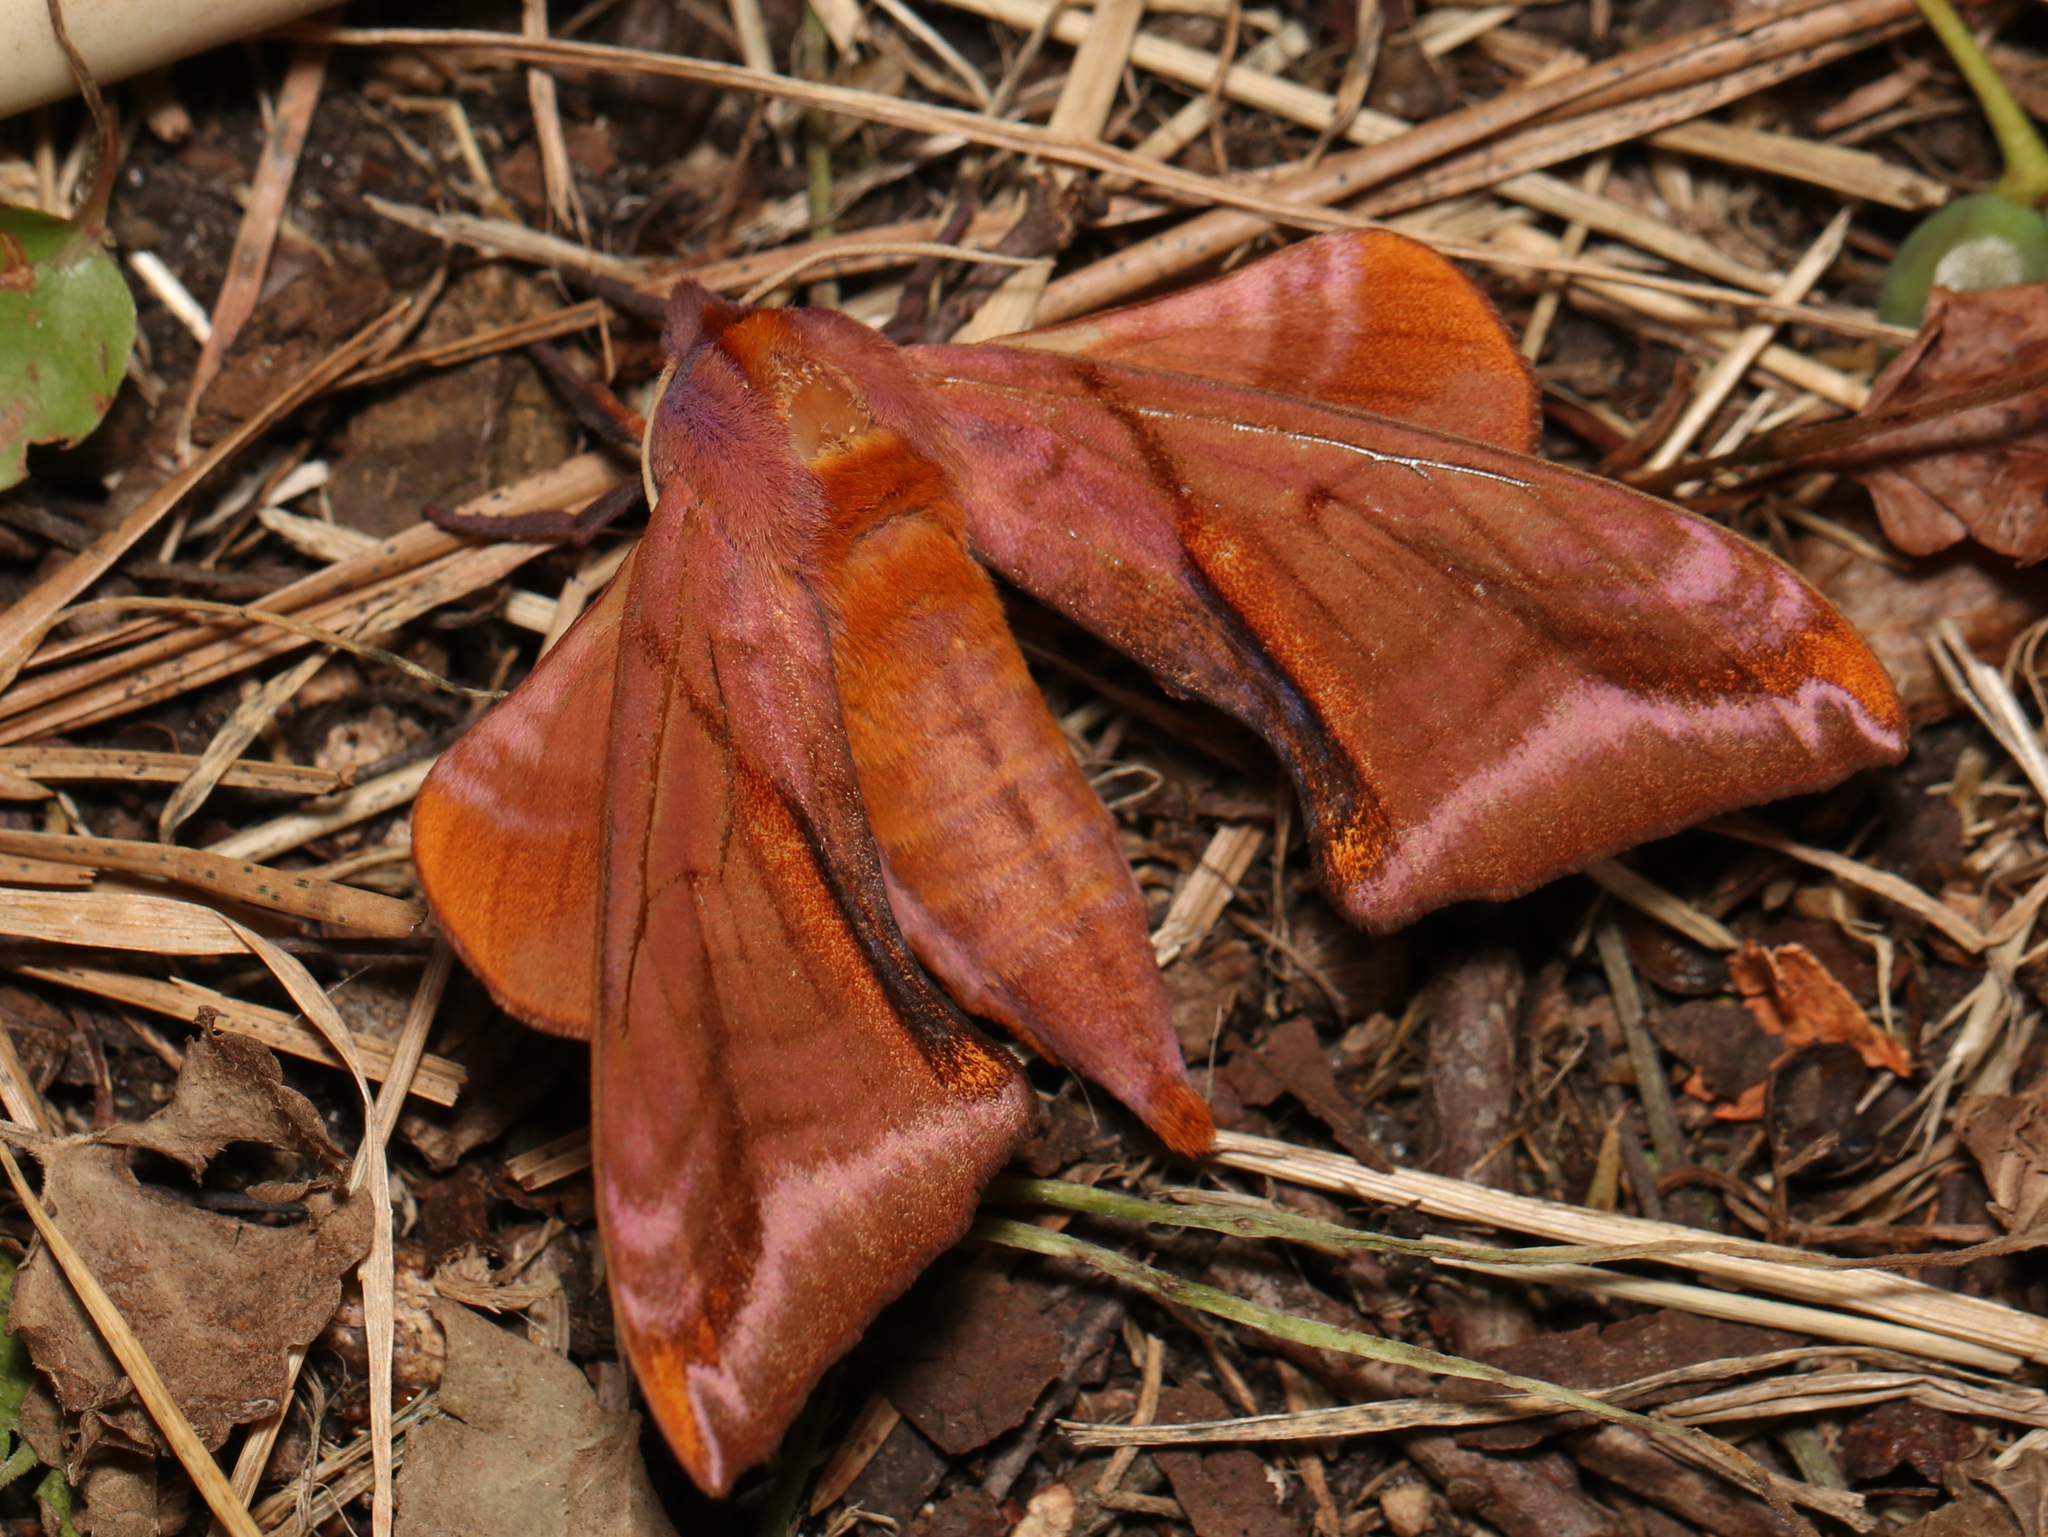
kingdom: Animalia
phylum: Arthropoda
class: Insecta
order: Lepidoptera
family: Sphingidae
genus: Paonias
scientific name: Paonias astylus
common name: Huckleberry sphinx
